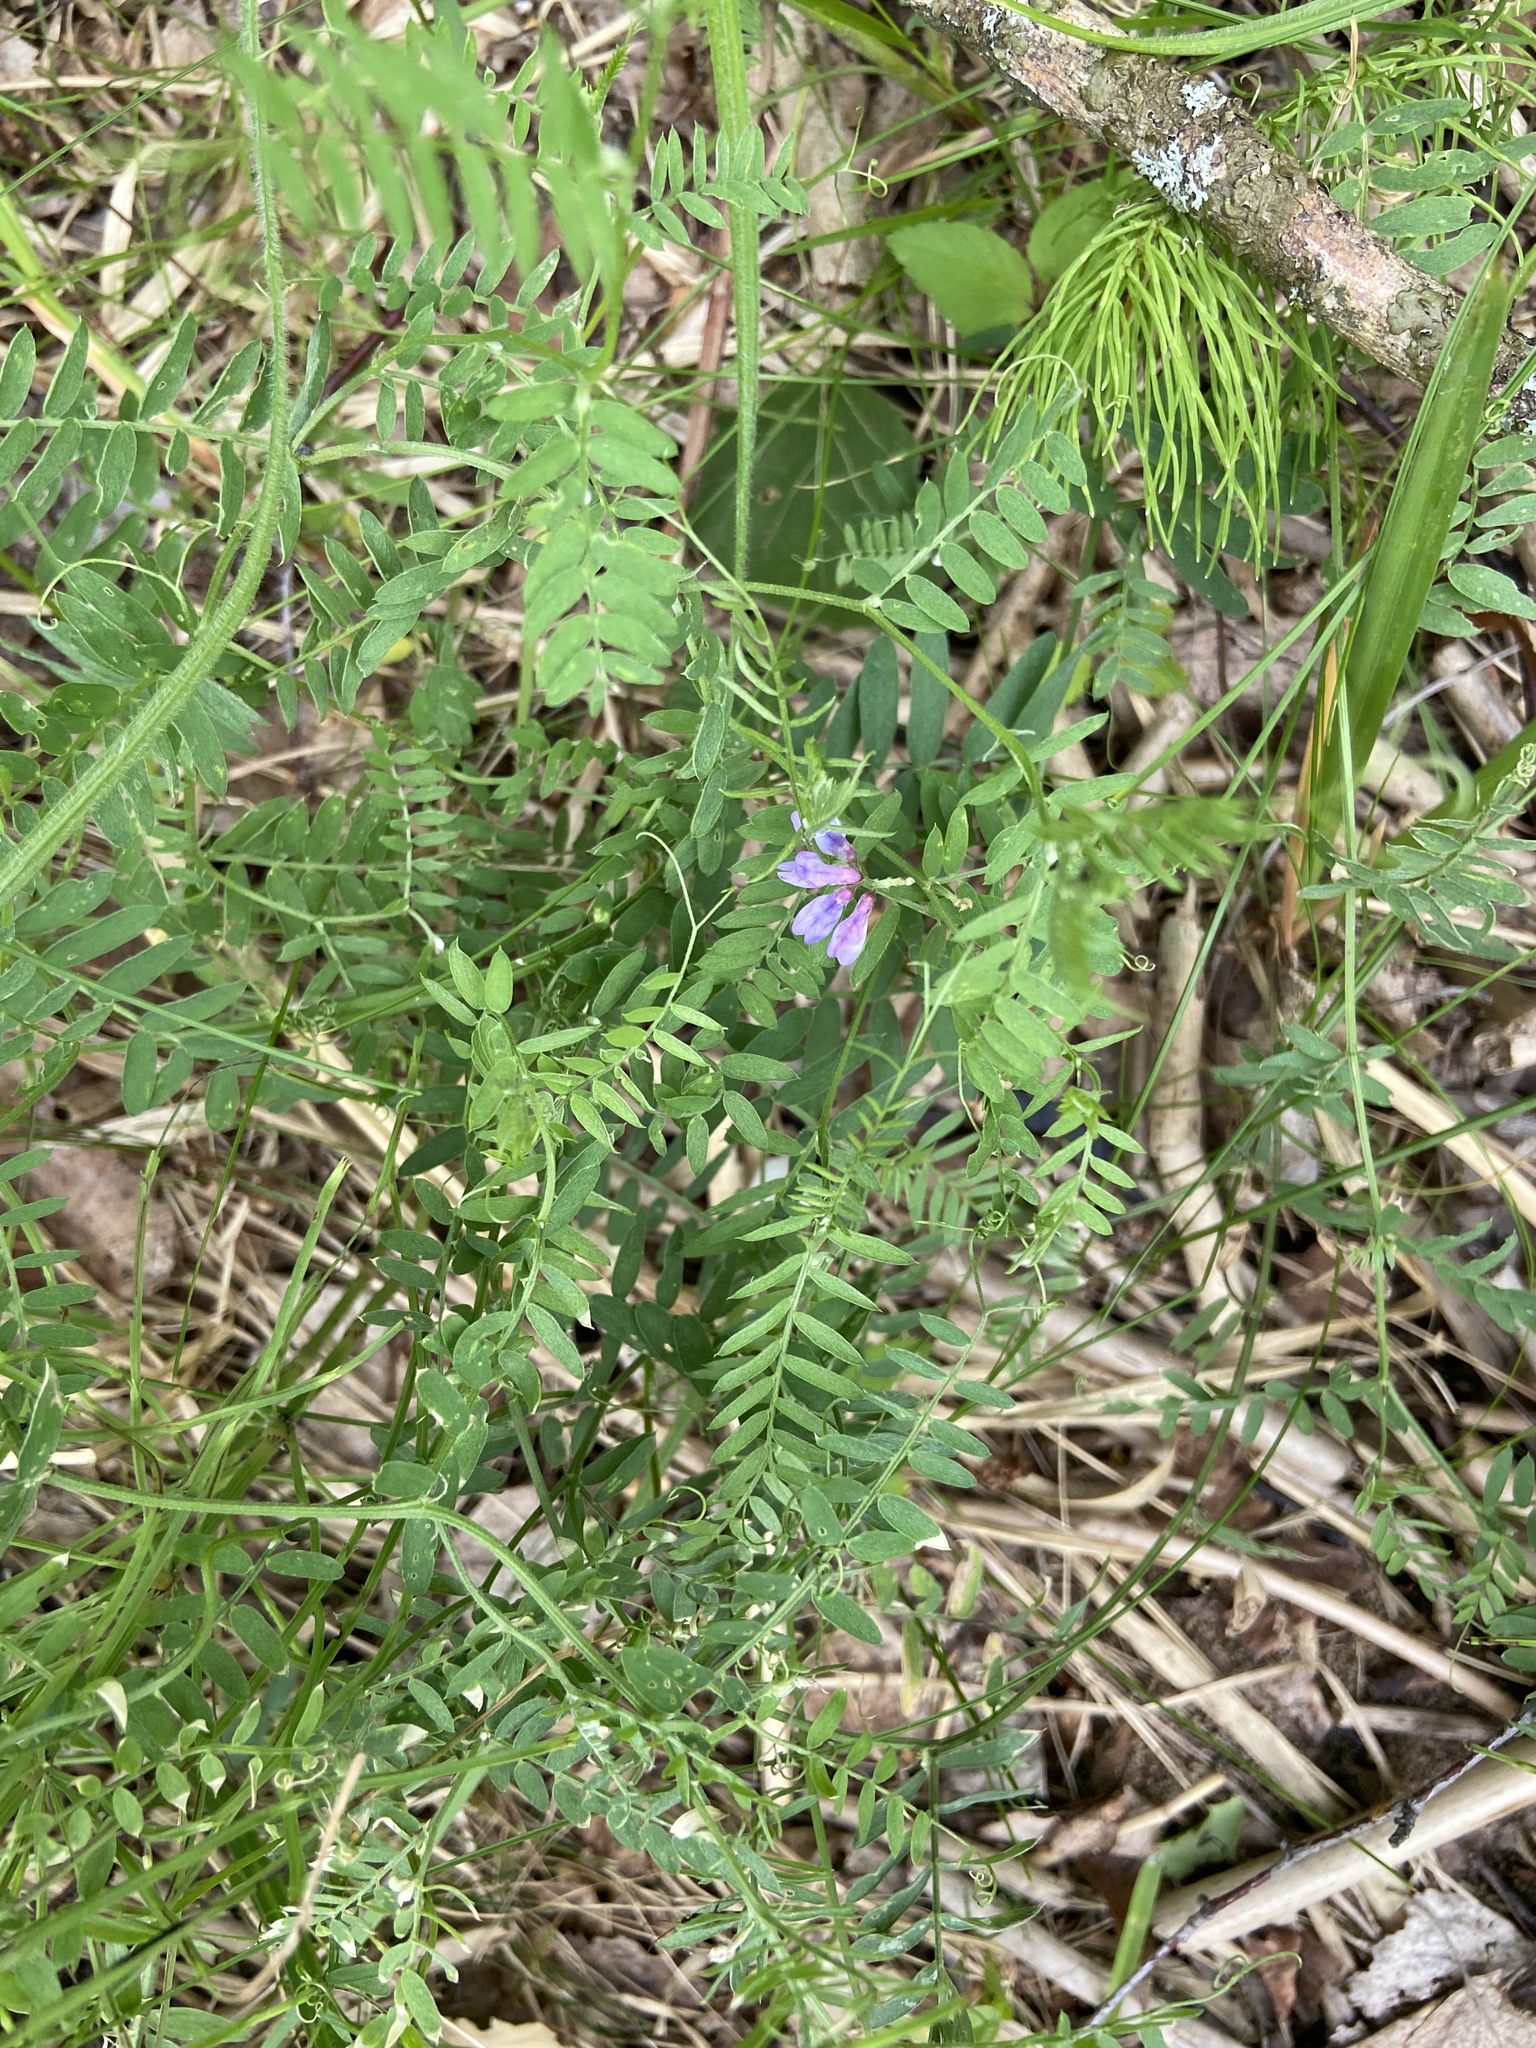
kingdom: Plantae
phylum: Tracheophyta
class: Magnoliopsida
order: Fabales
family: Fabaceae
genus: Vicia
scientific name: Vicia cracca
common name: Bird vetch
